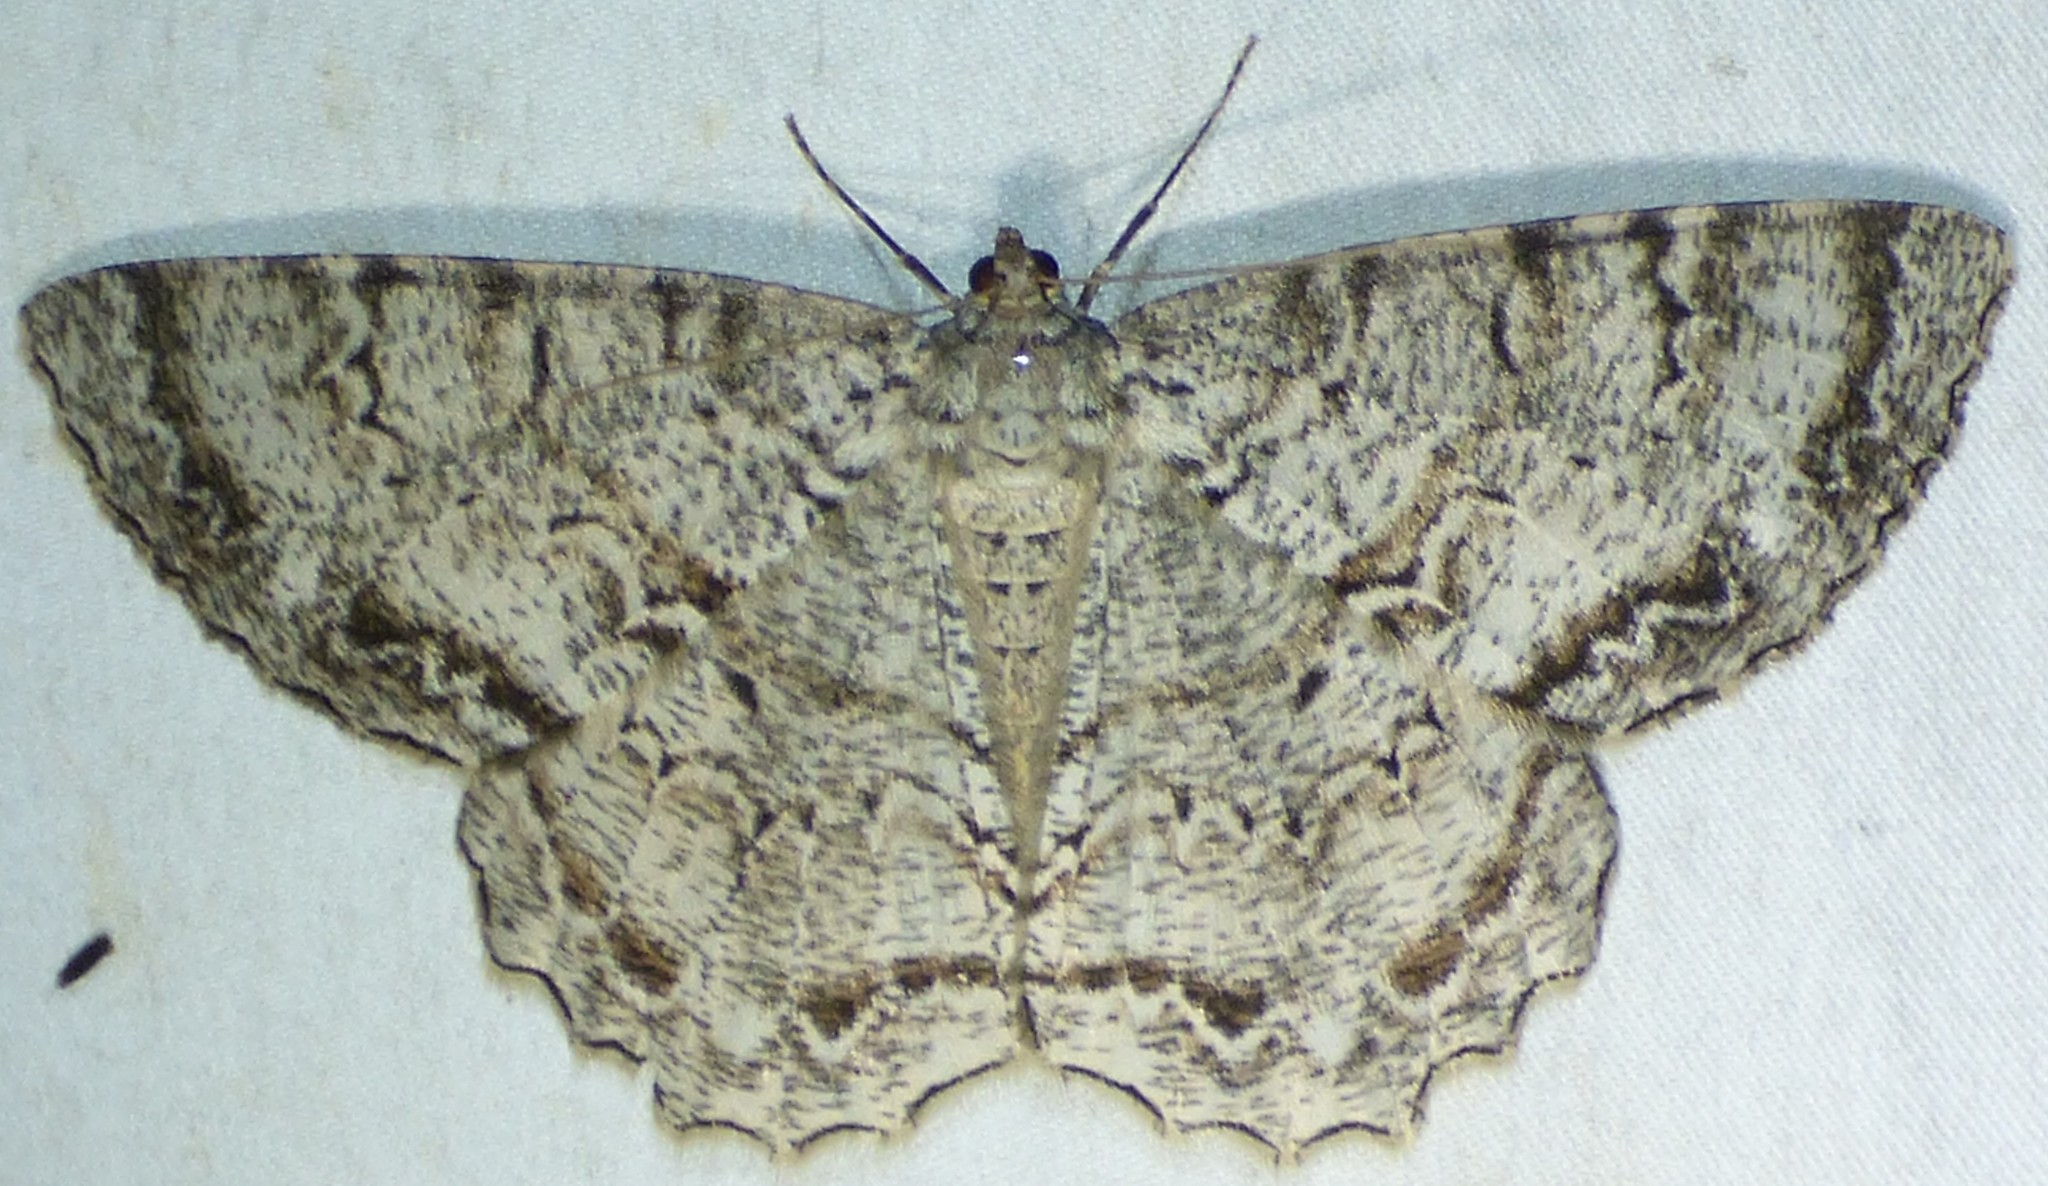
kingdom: Animalia
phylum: Arthropoda
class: Insecta
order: Lepidoptera
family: Geometridae
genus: Epimecis
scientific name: Epimecis hortaria
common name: Tulip-tree beauty
